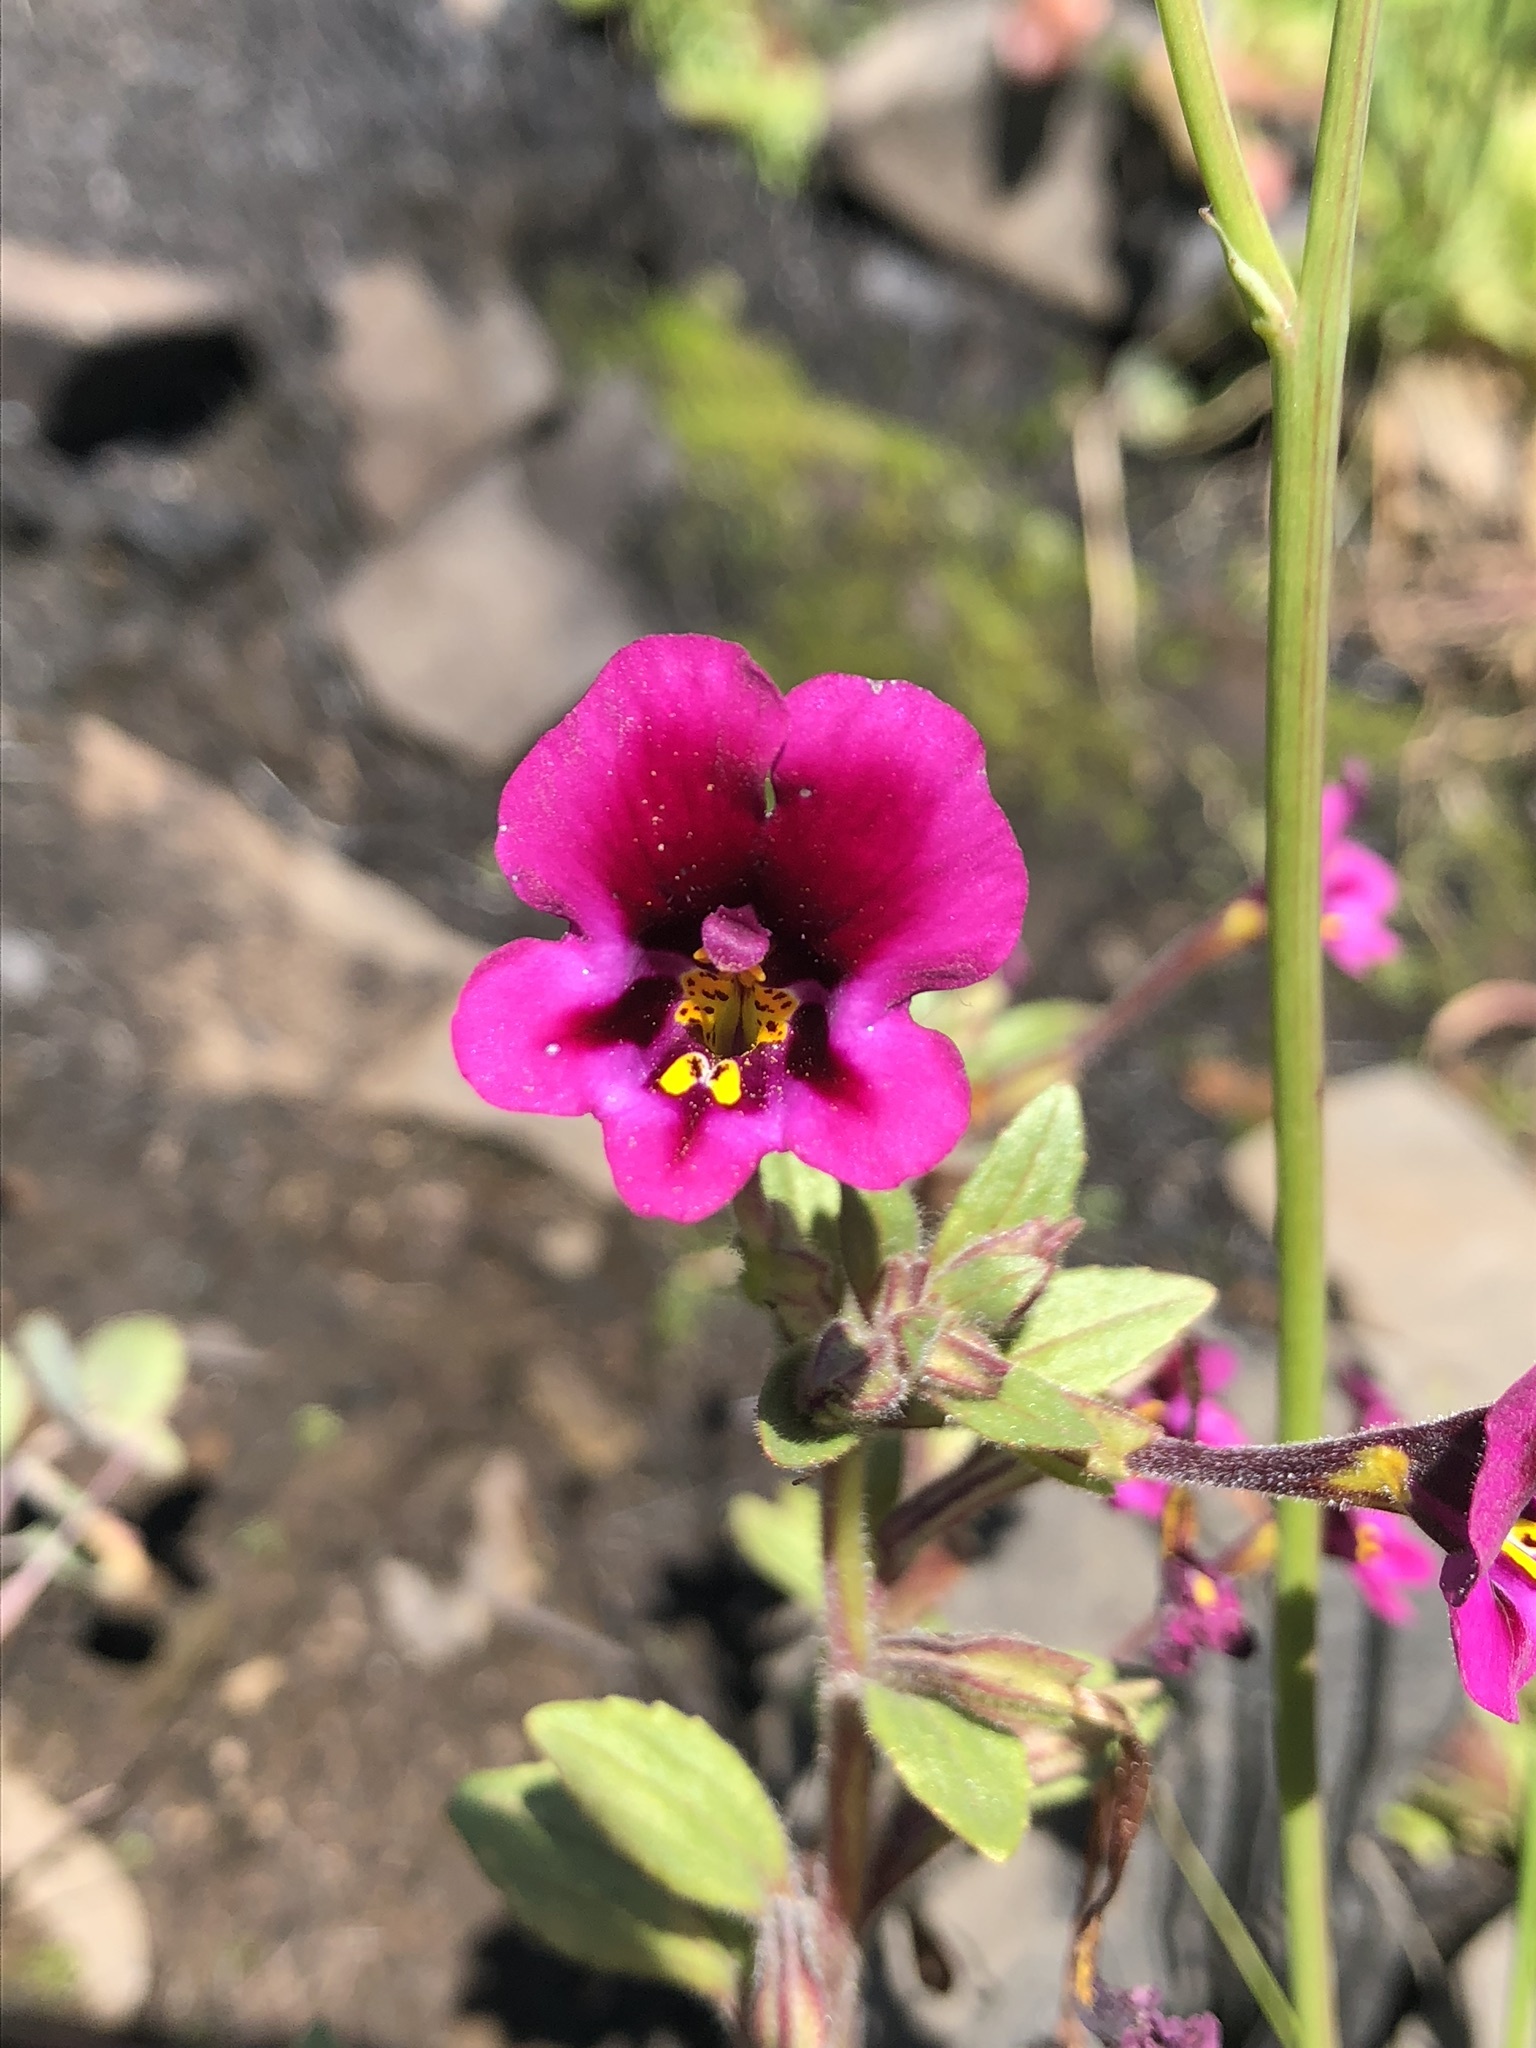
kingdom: Plantae
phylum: Tracheophyta
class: Magnoliopsida
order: Lamiales
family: Phrymaceae
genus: Diplacus
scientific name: Diplacus kelloggii
